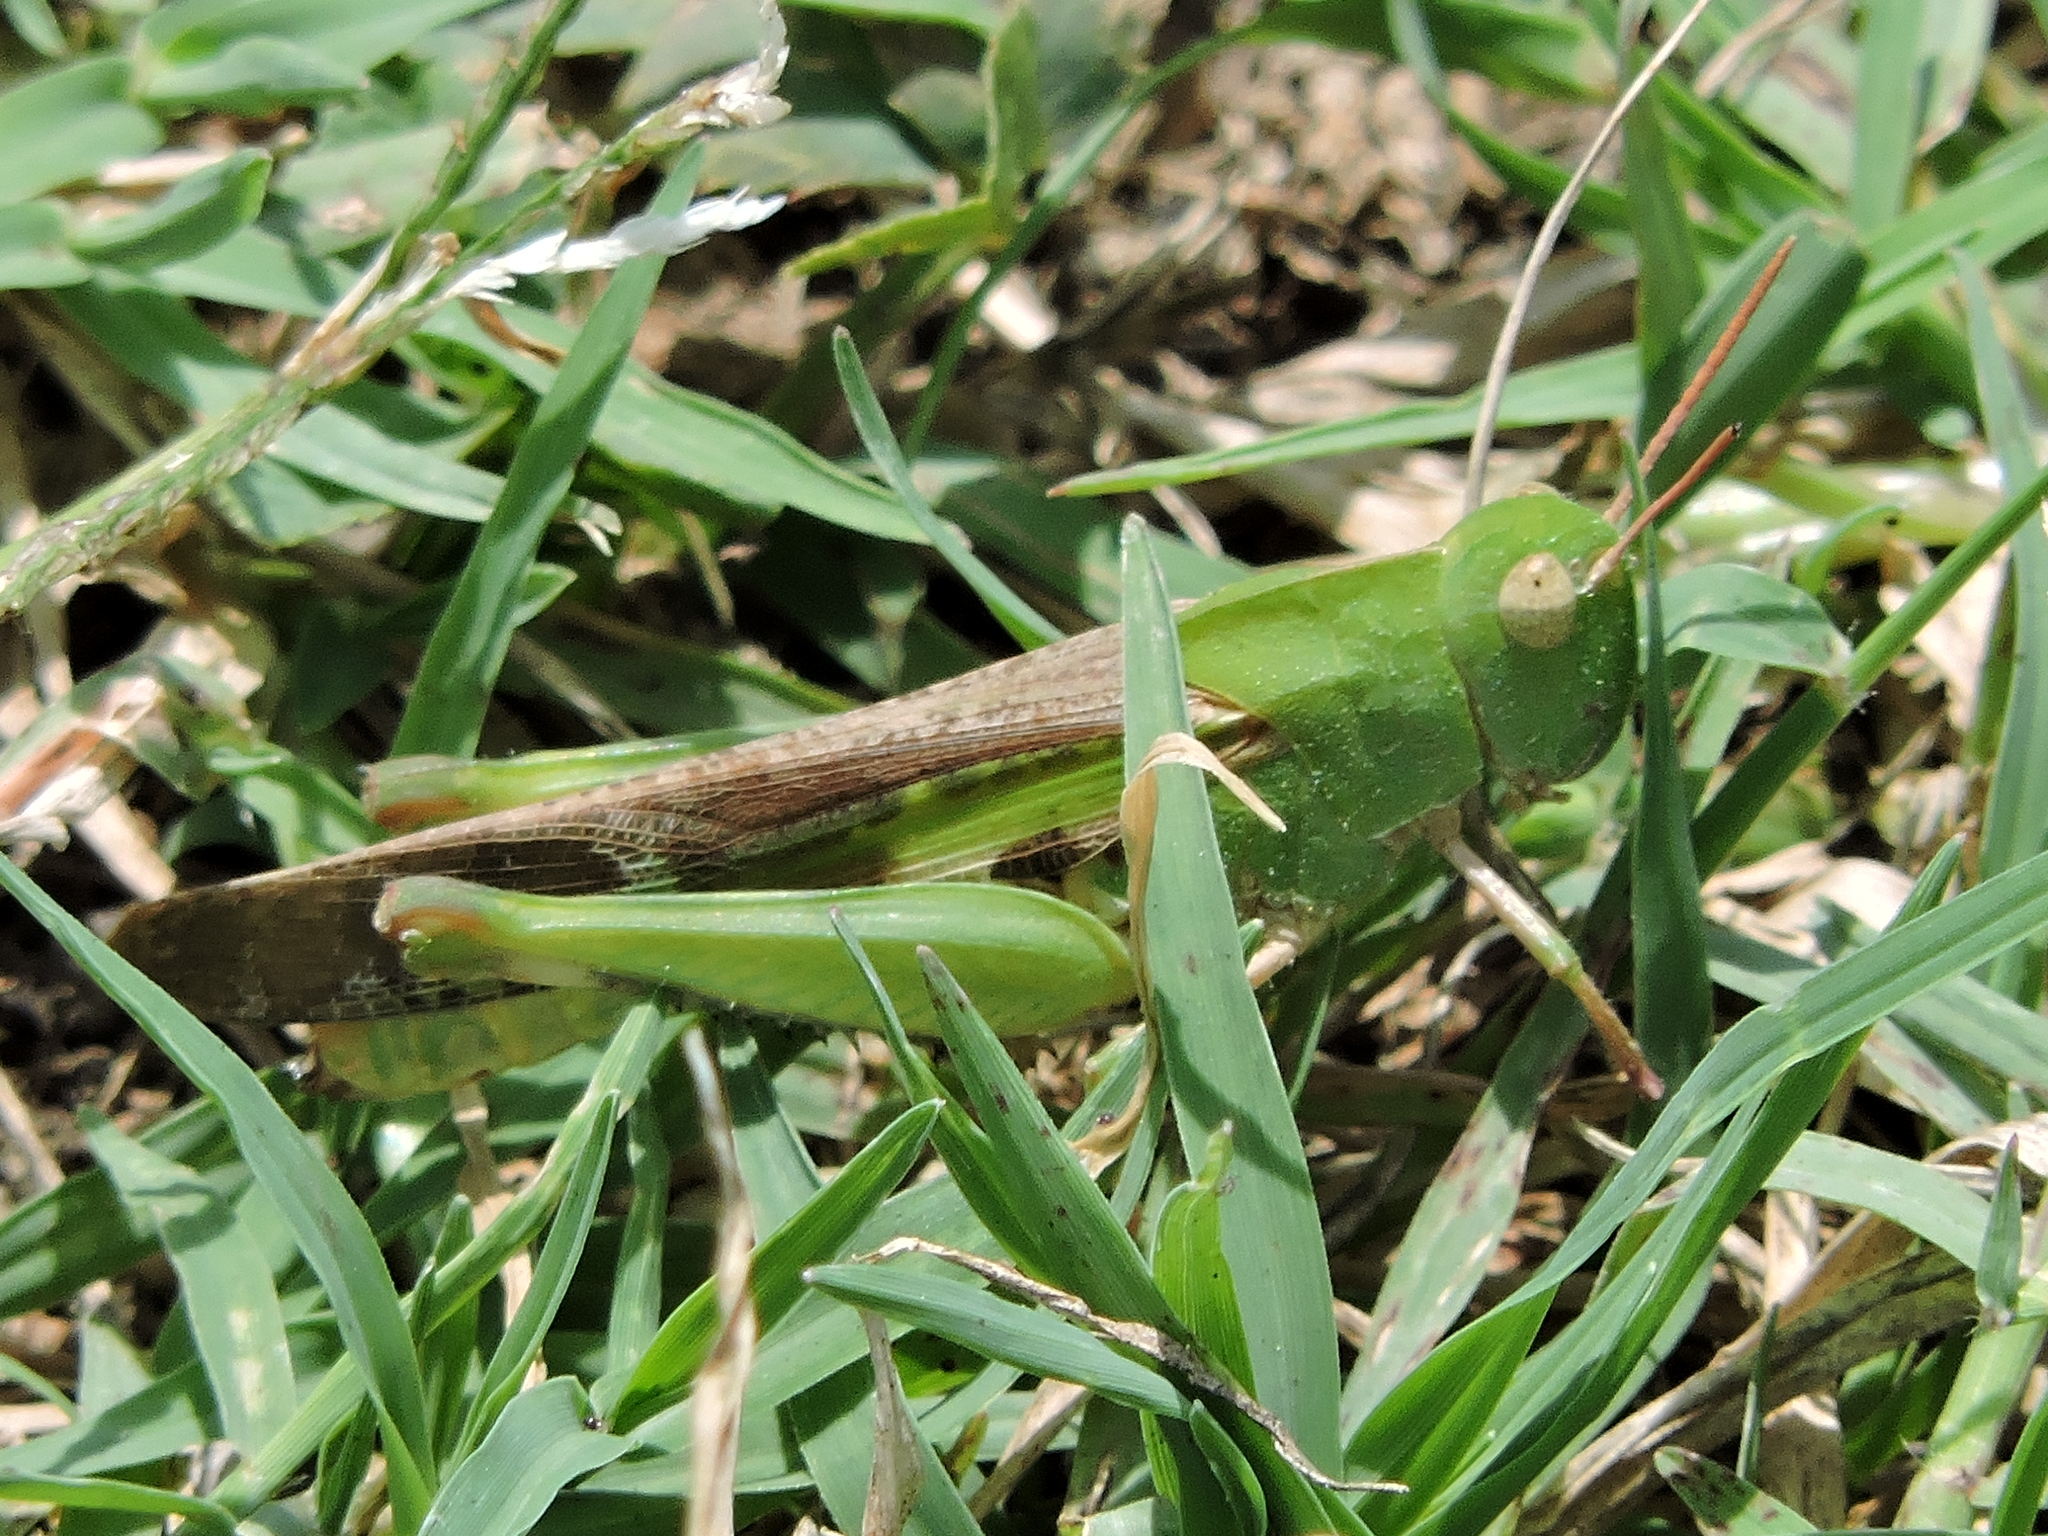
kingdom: Animalia
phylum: Arthropoda
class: Insecta
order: Orthoptera
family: Acrididae
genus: Chortophaga
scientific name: Chortophaga viridifasciata
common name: Green-striped grasshopper
